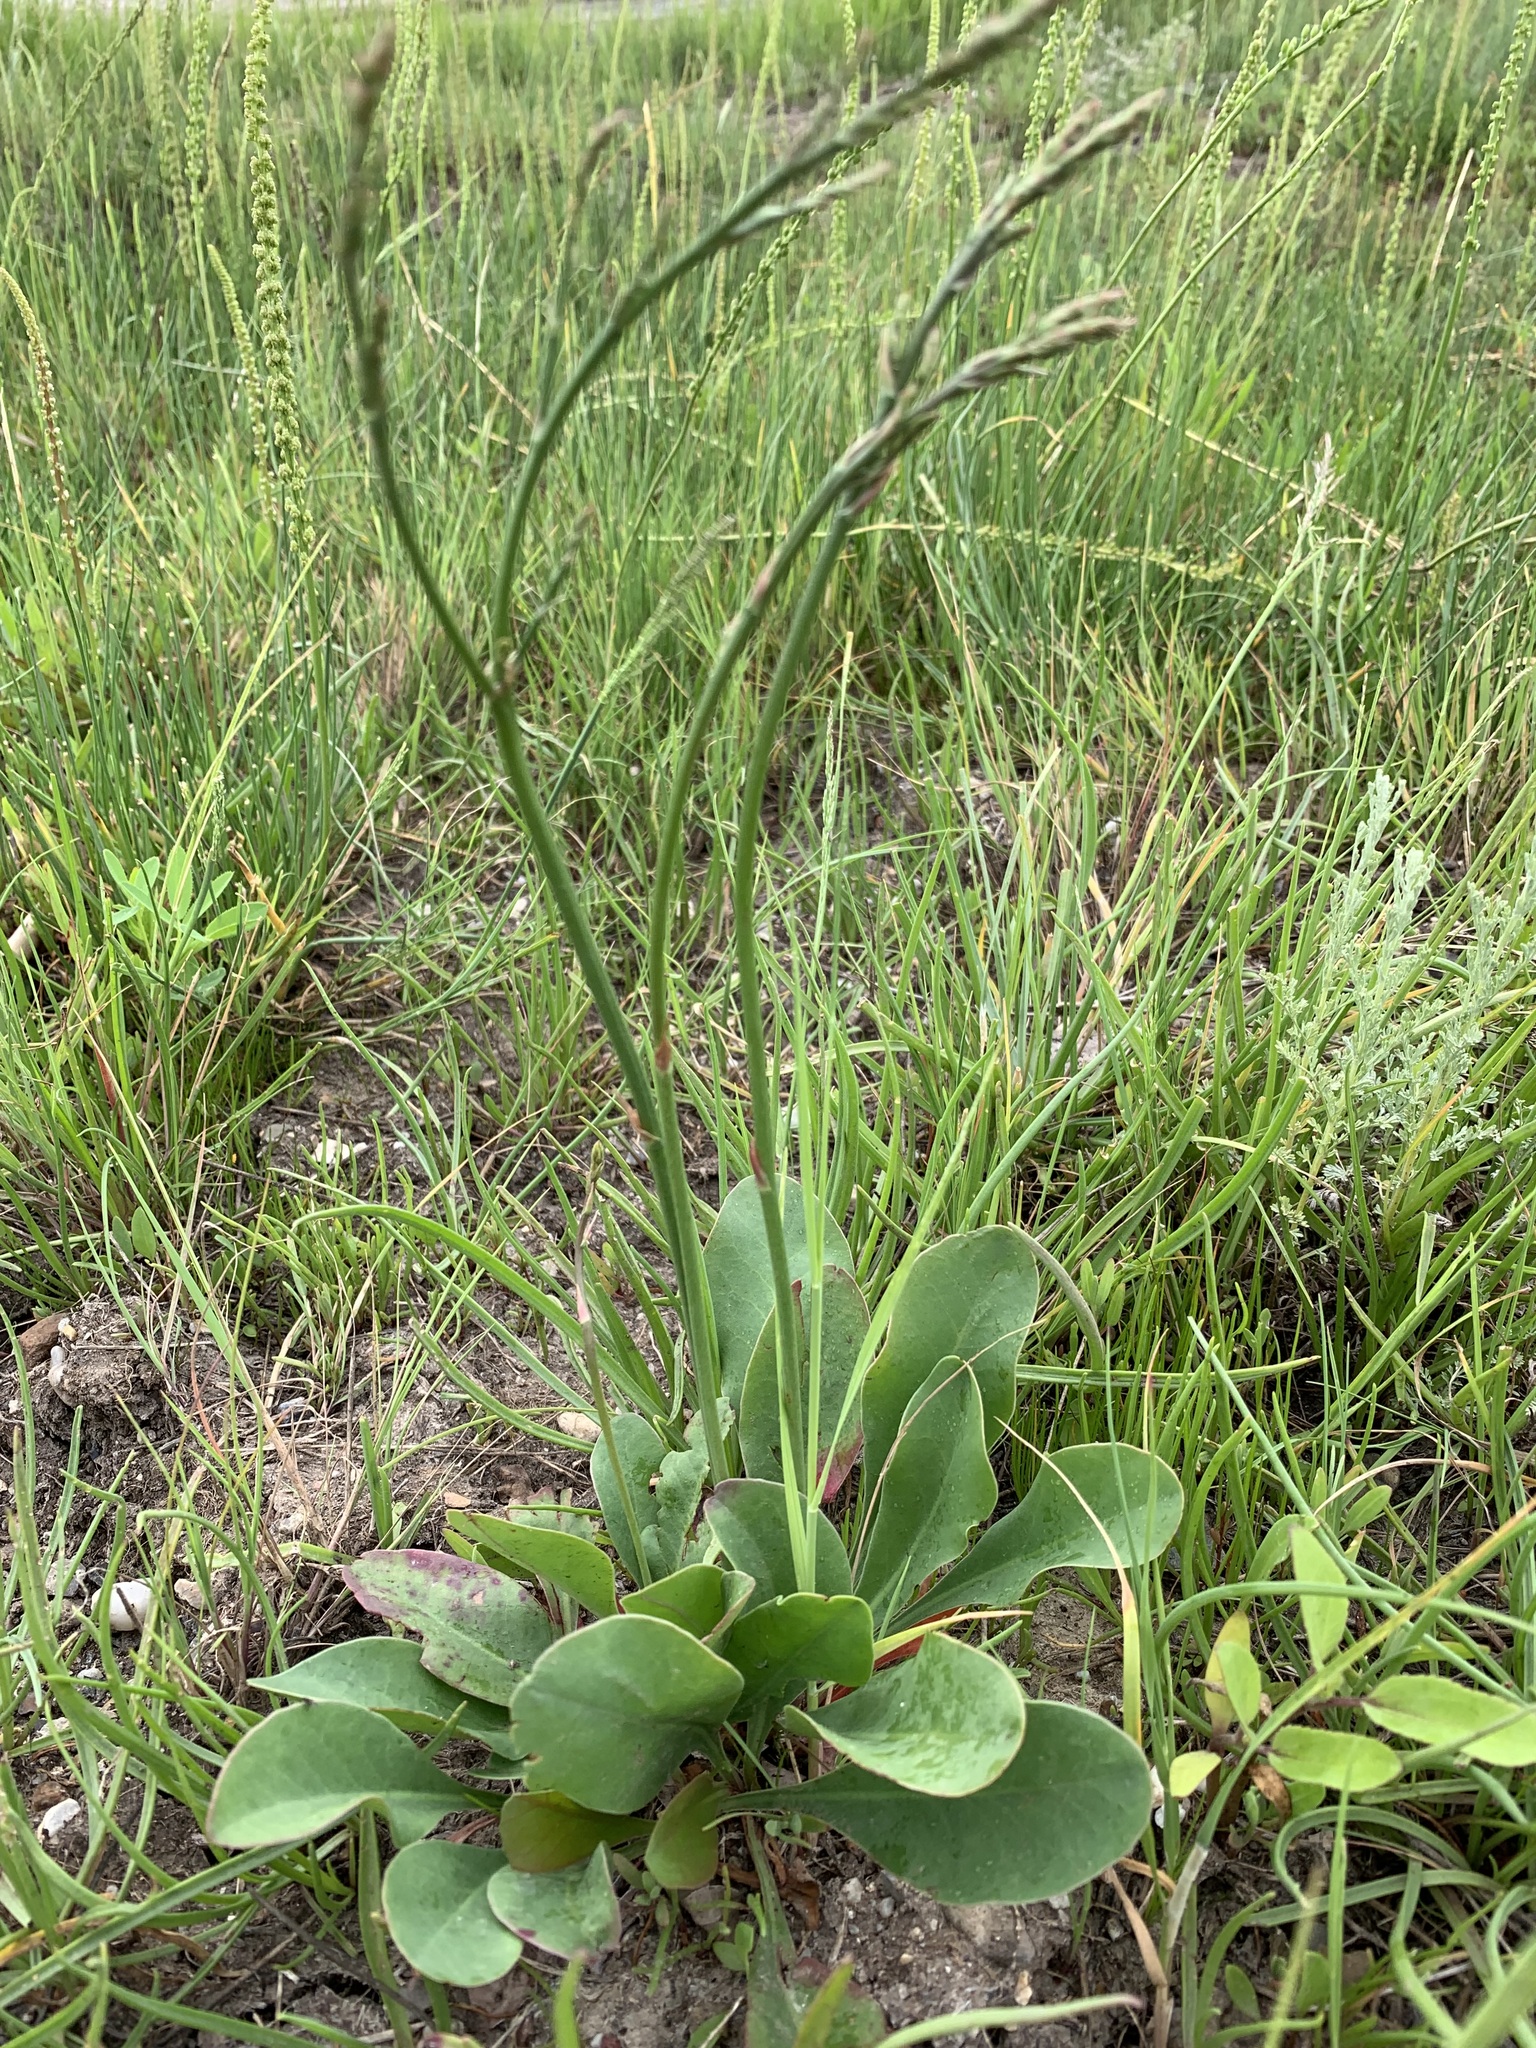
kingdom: Plantae
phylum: Tracheophyta
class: Magnoliopsida
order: Caryophyllales
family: Plumbaginaceae
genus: Limonium
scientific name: Limonium gmelini
